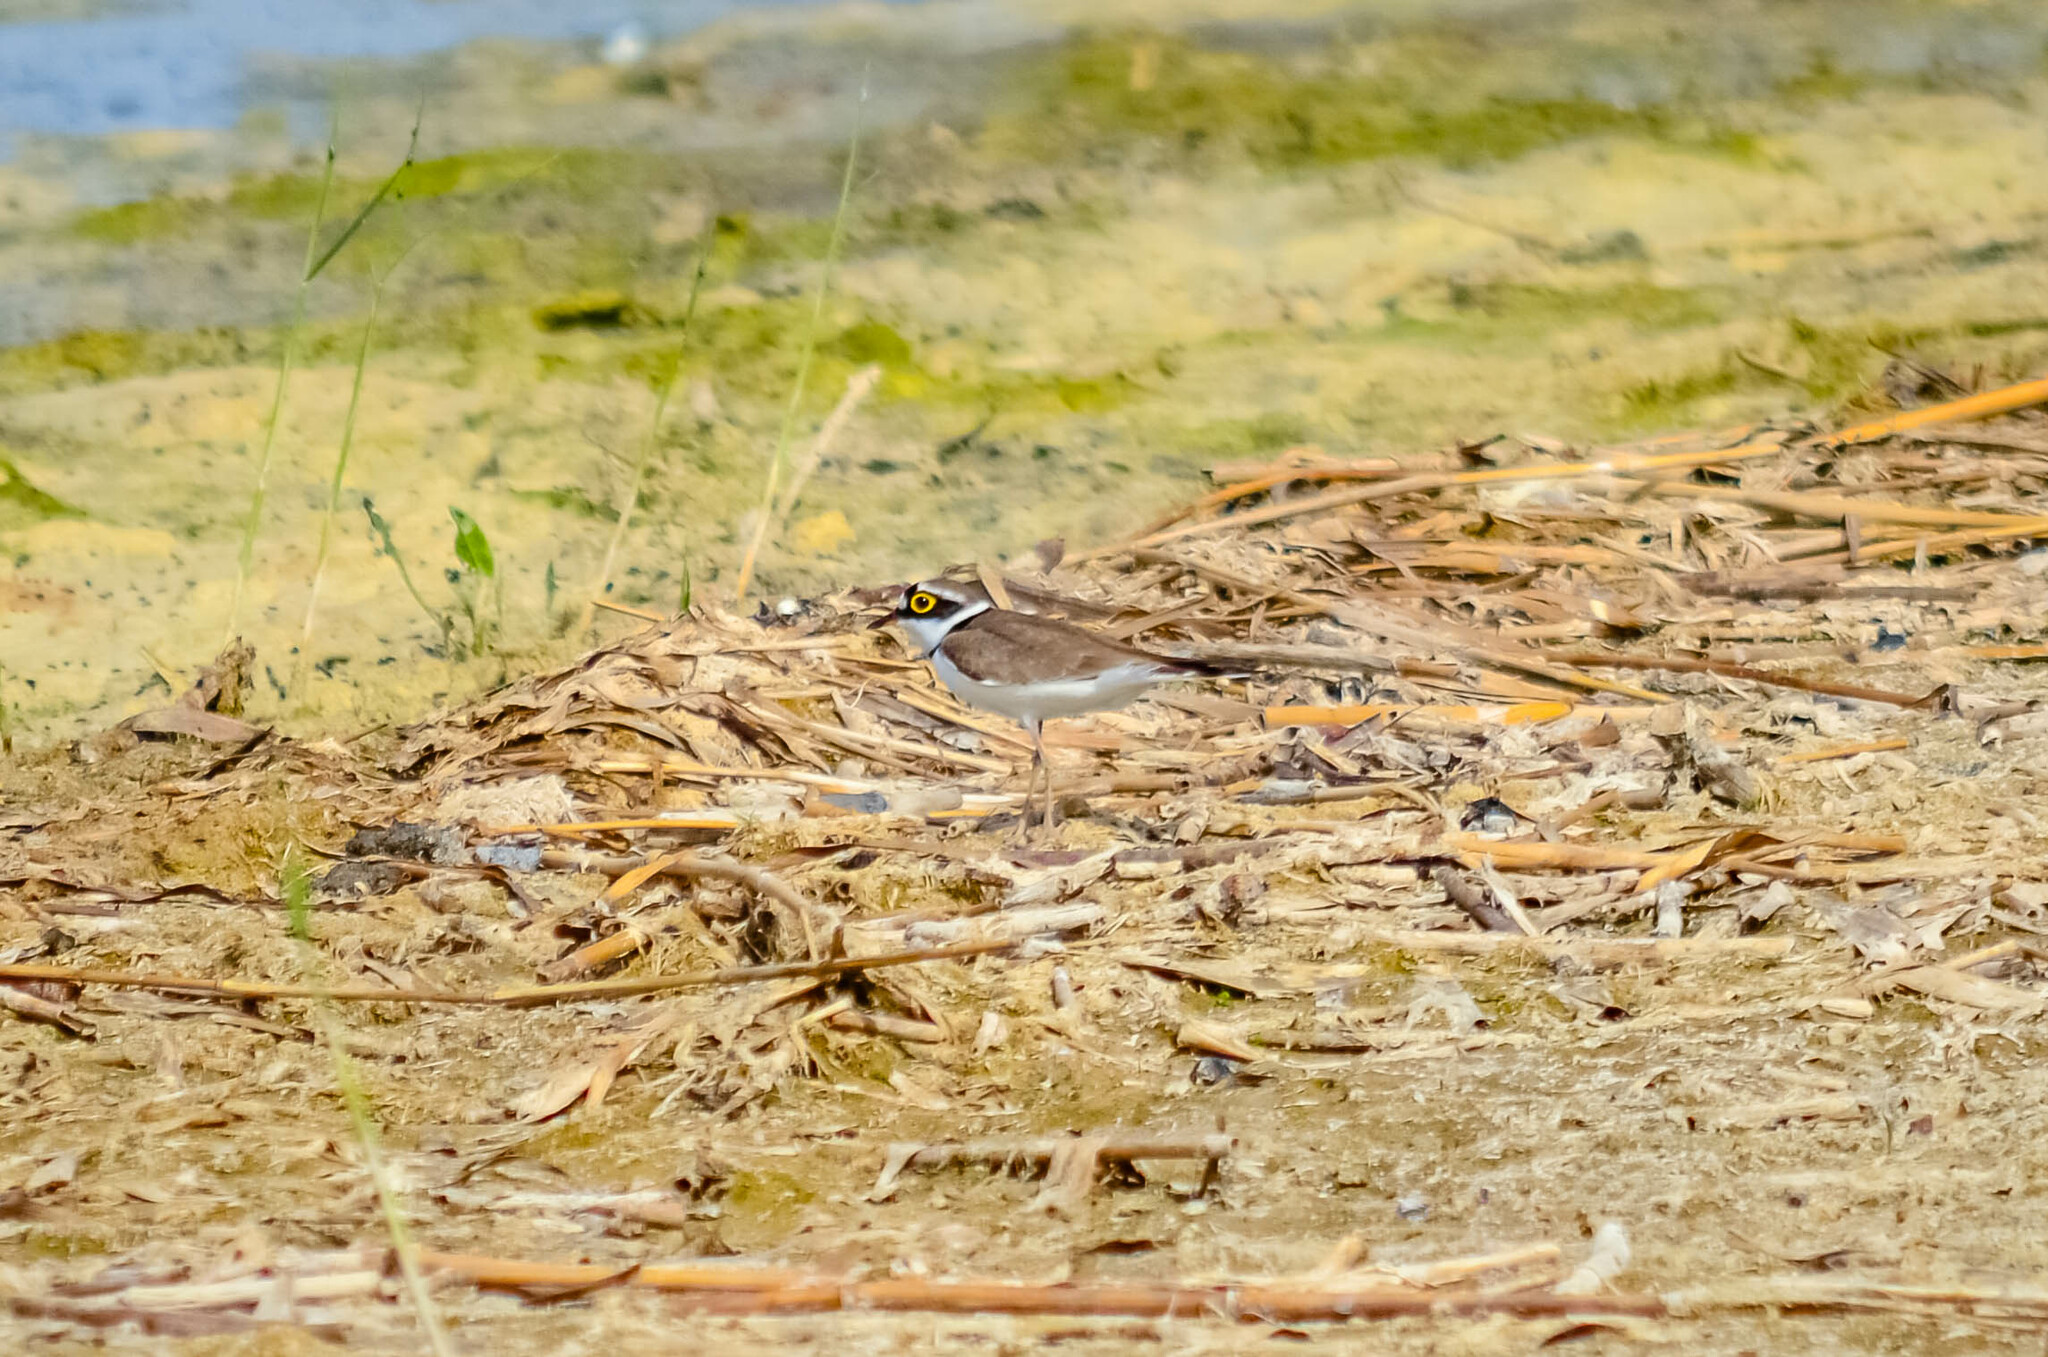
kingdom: Animalia
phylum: Chordata
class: Aves
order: Charadriiformes
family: Charadriidae
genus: Charadrius
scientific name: Charadrius dubius
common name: Little ringed plover
